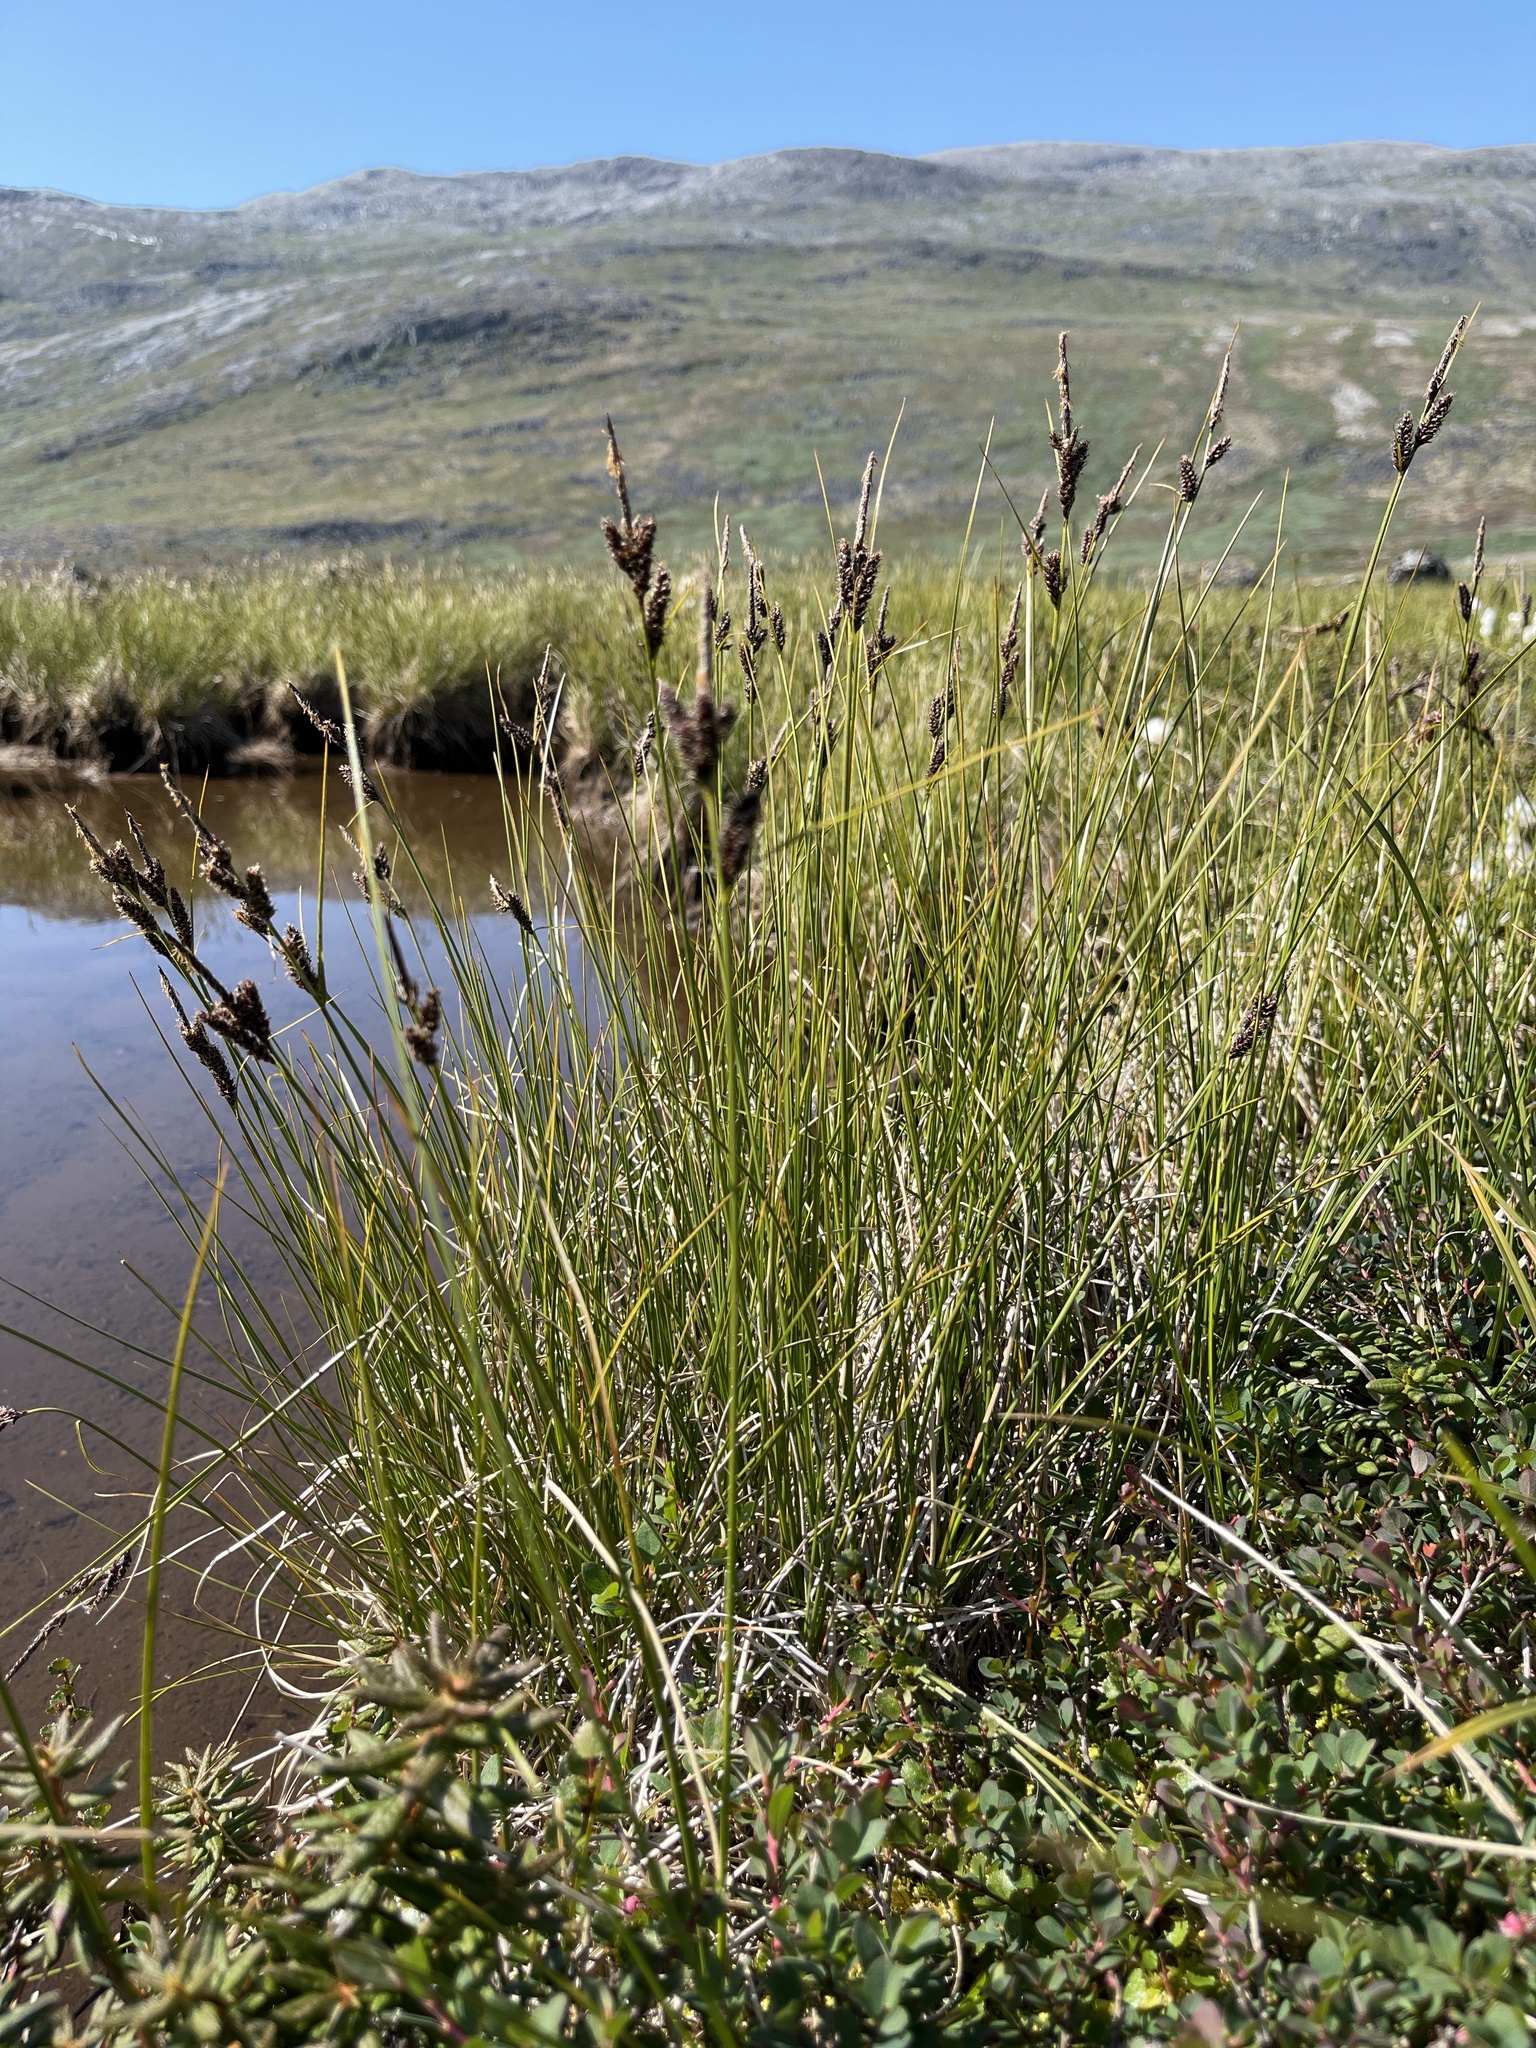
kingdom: Plantae
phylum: Tracheophyta
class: Liliopsida
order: Poales
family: Cyperaceae
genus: Carex
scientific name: Carex saxatilis
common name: Russet sedge
